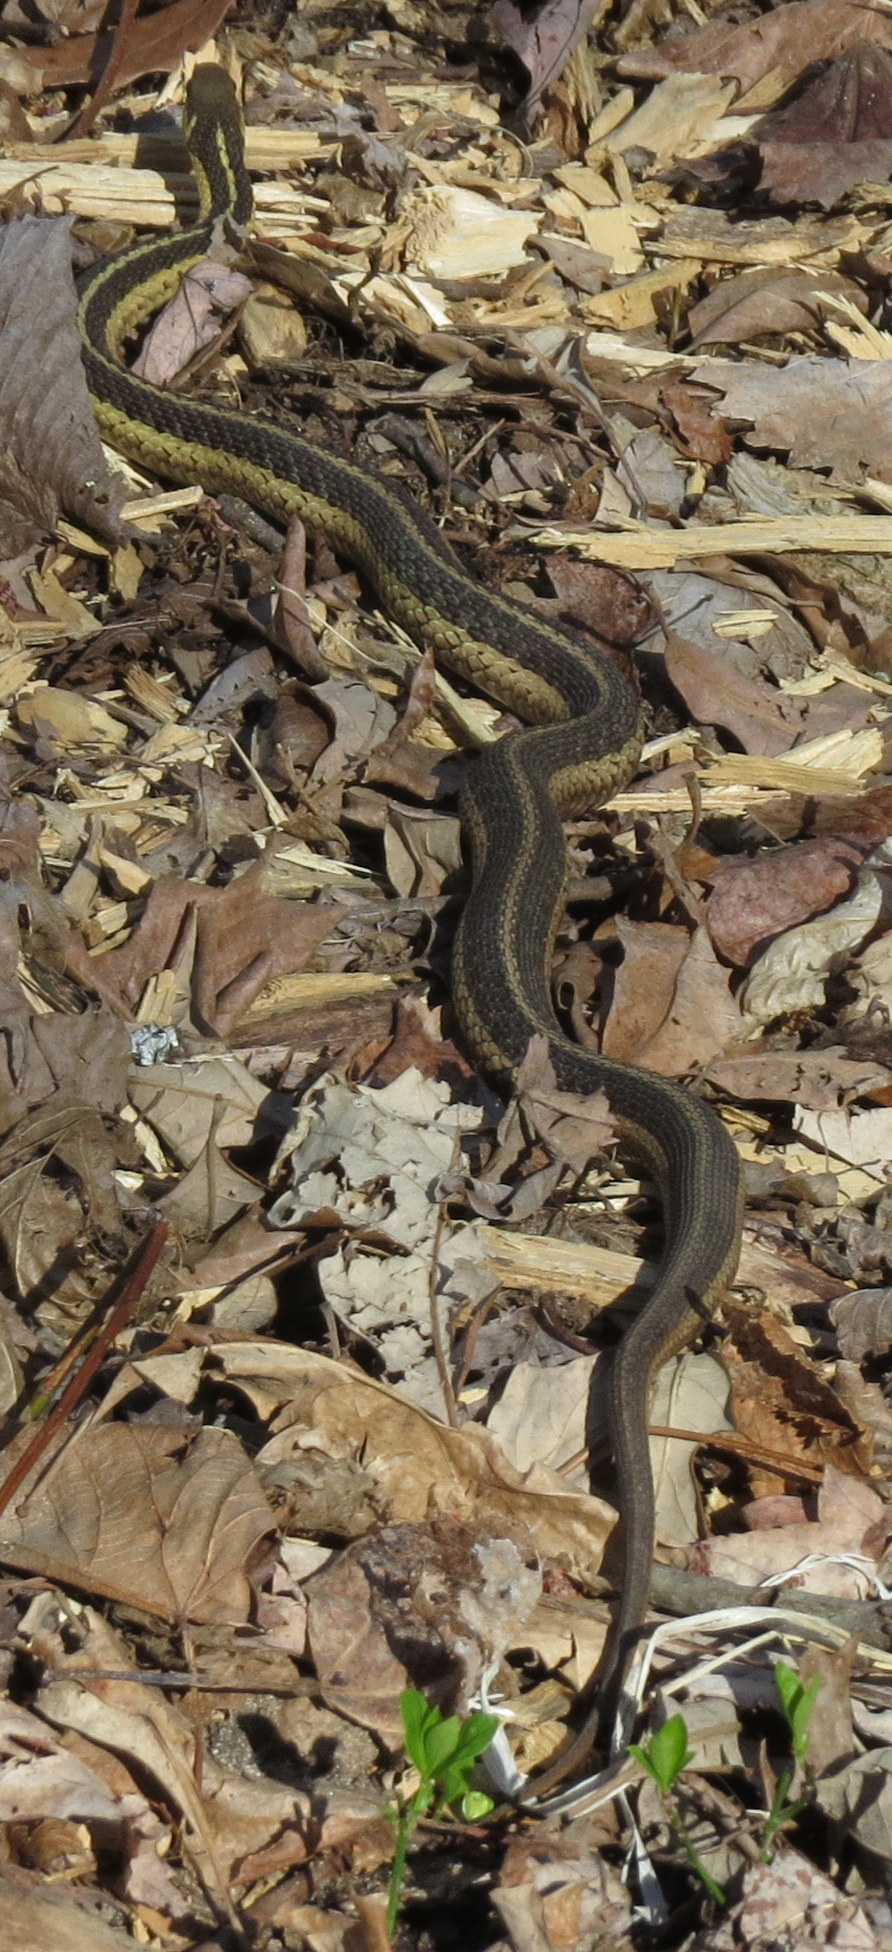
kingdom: Animalia
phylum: Chordata
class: Squamata
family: Colubridae
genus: Thamnophis
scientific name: Thamnophis sirtalis
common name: Common garter snake
